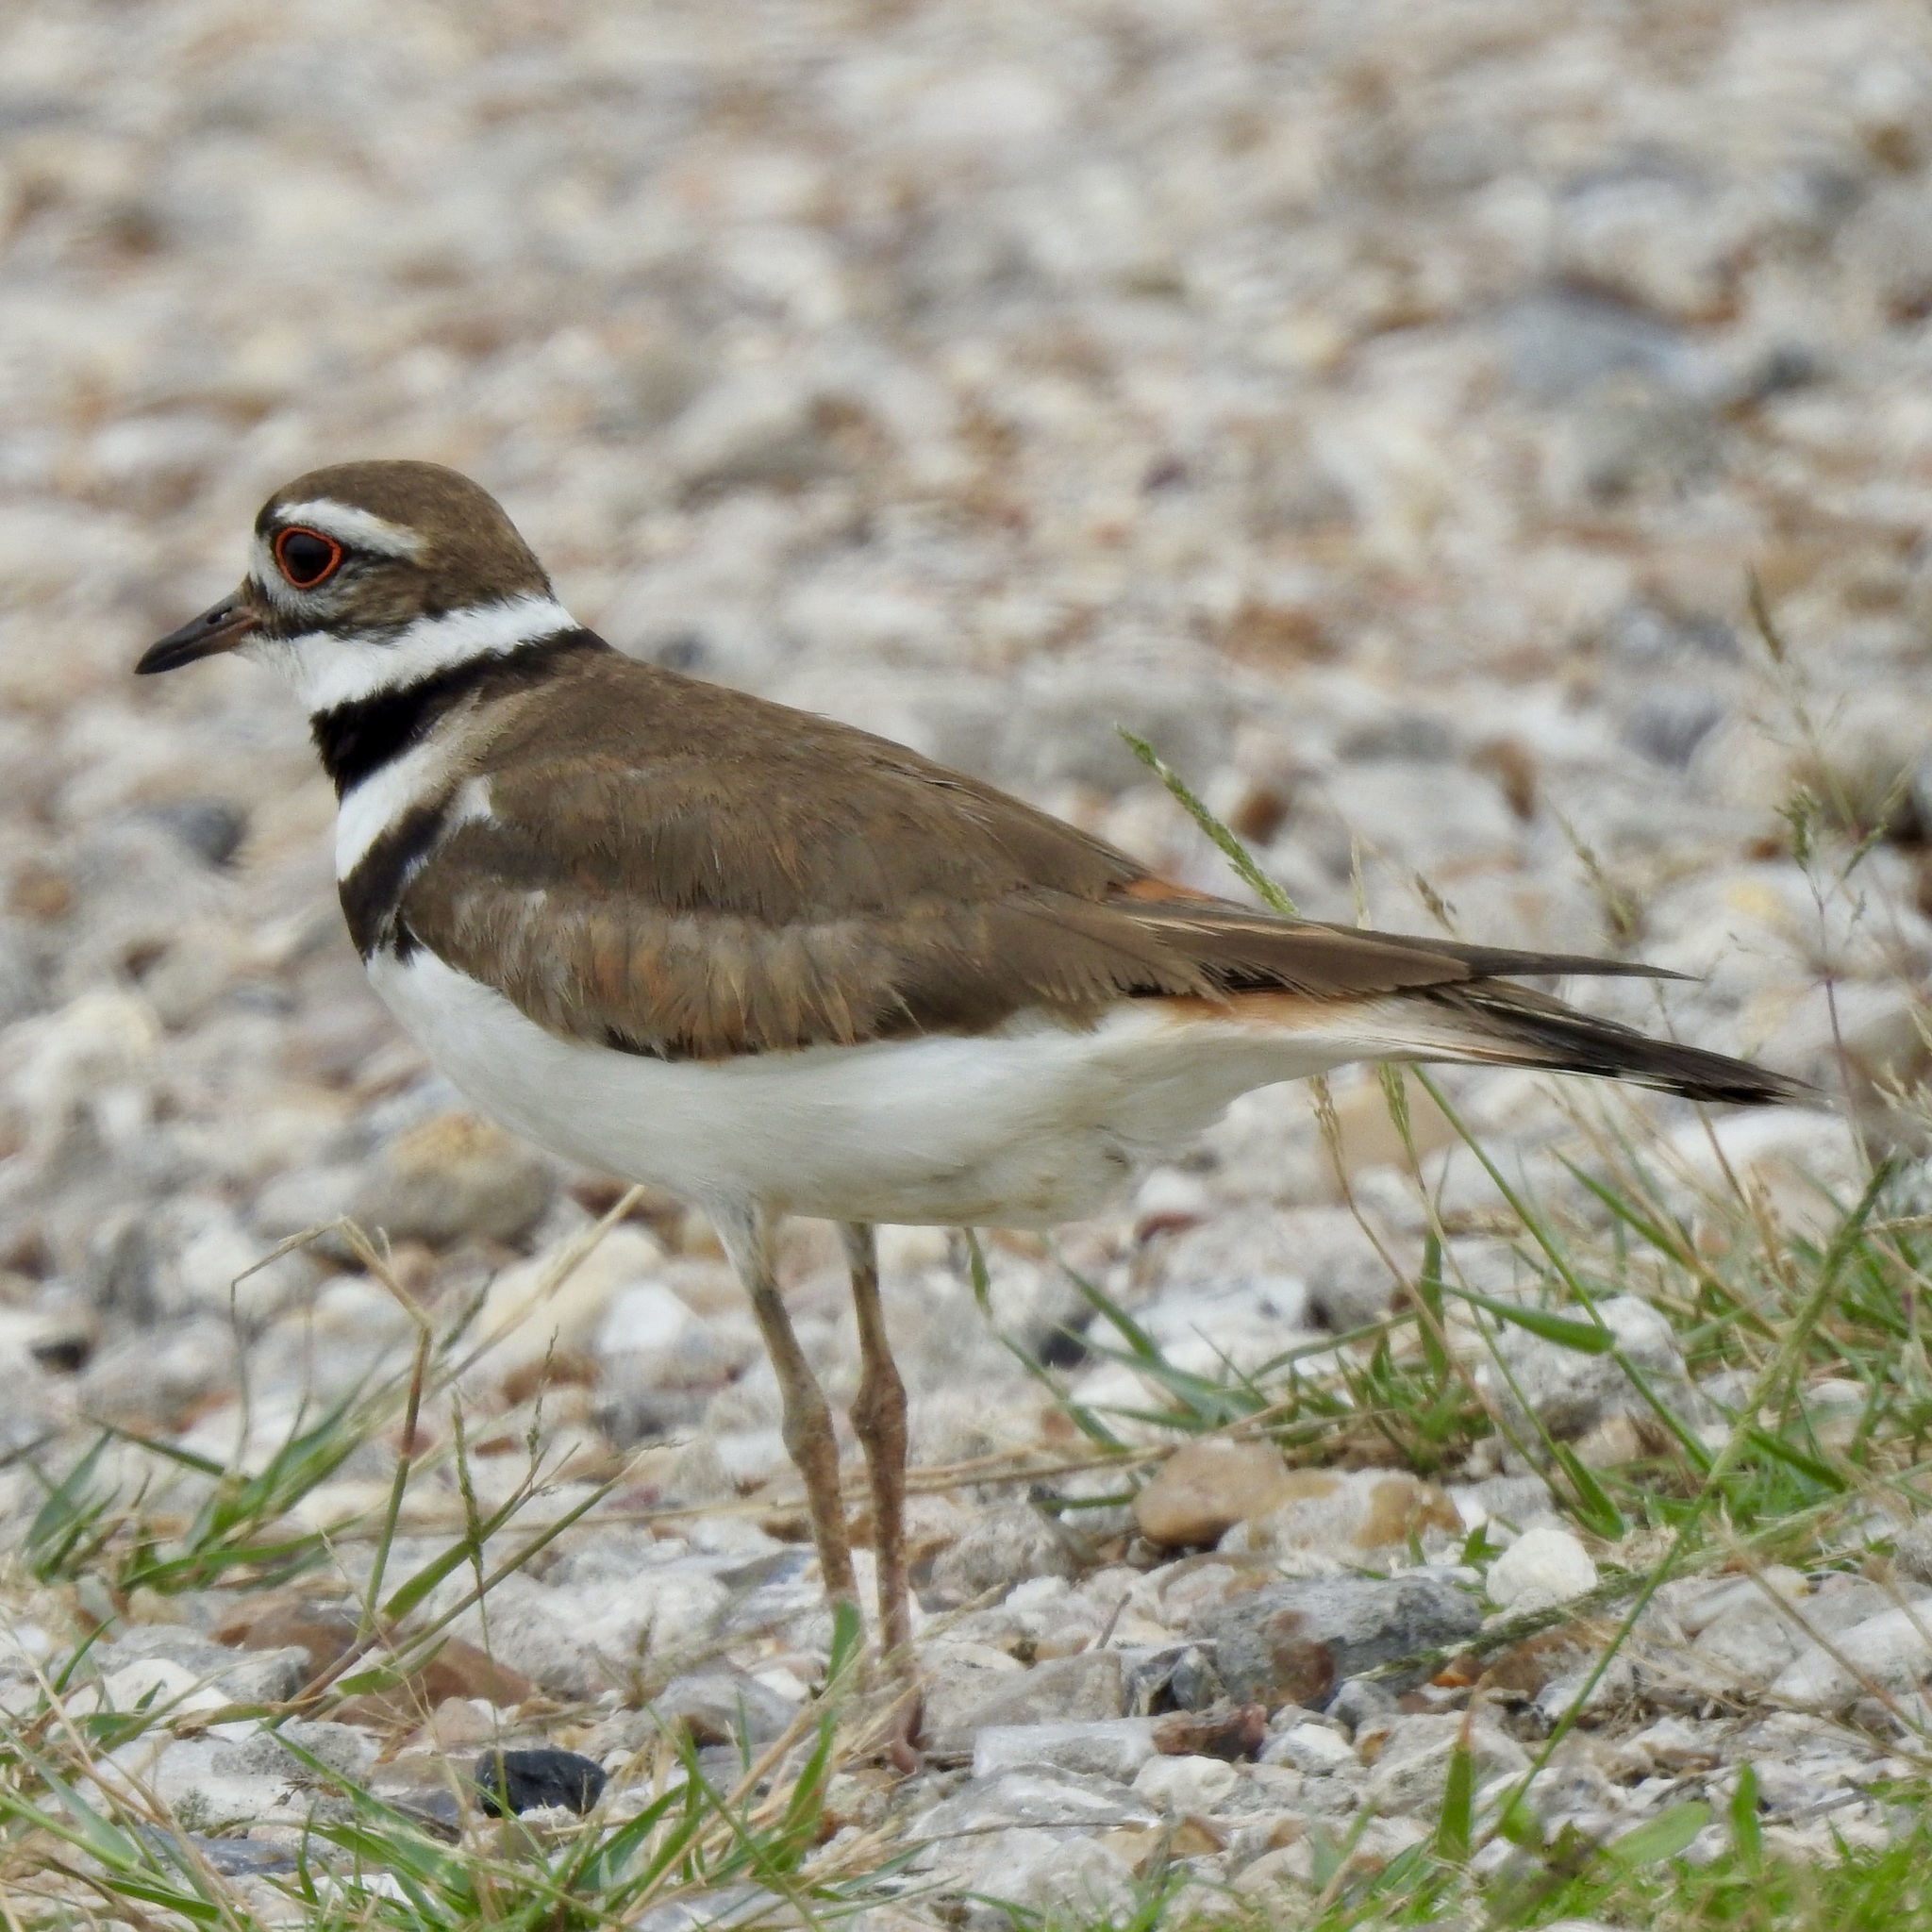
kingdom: Animalia
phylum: Chordata
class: Aves
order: Charadriiformes
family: Charadriidae
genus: Charadrius
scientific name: Charadrius vociferus
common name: Killdeer
